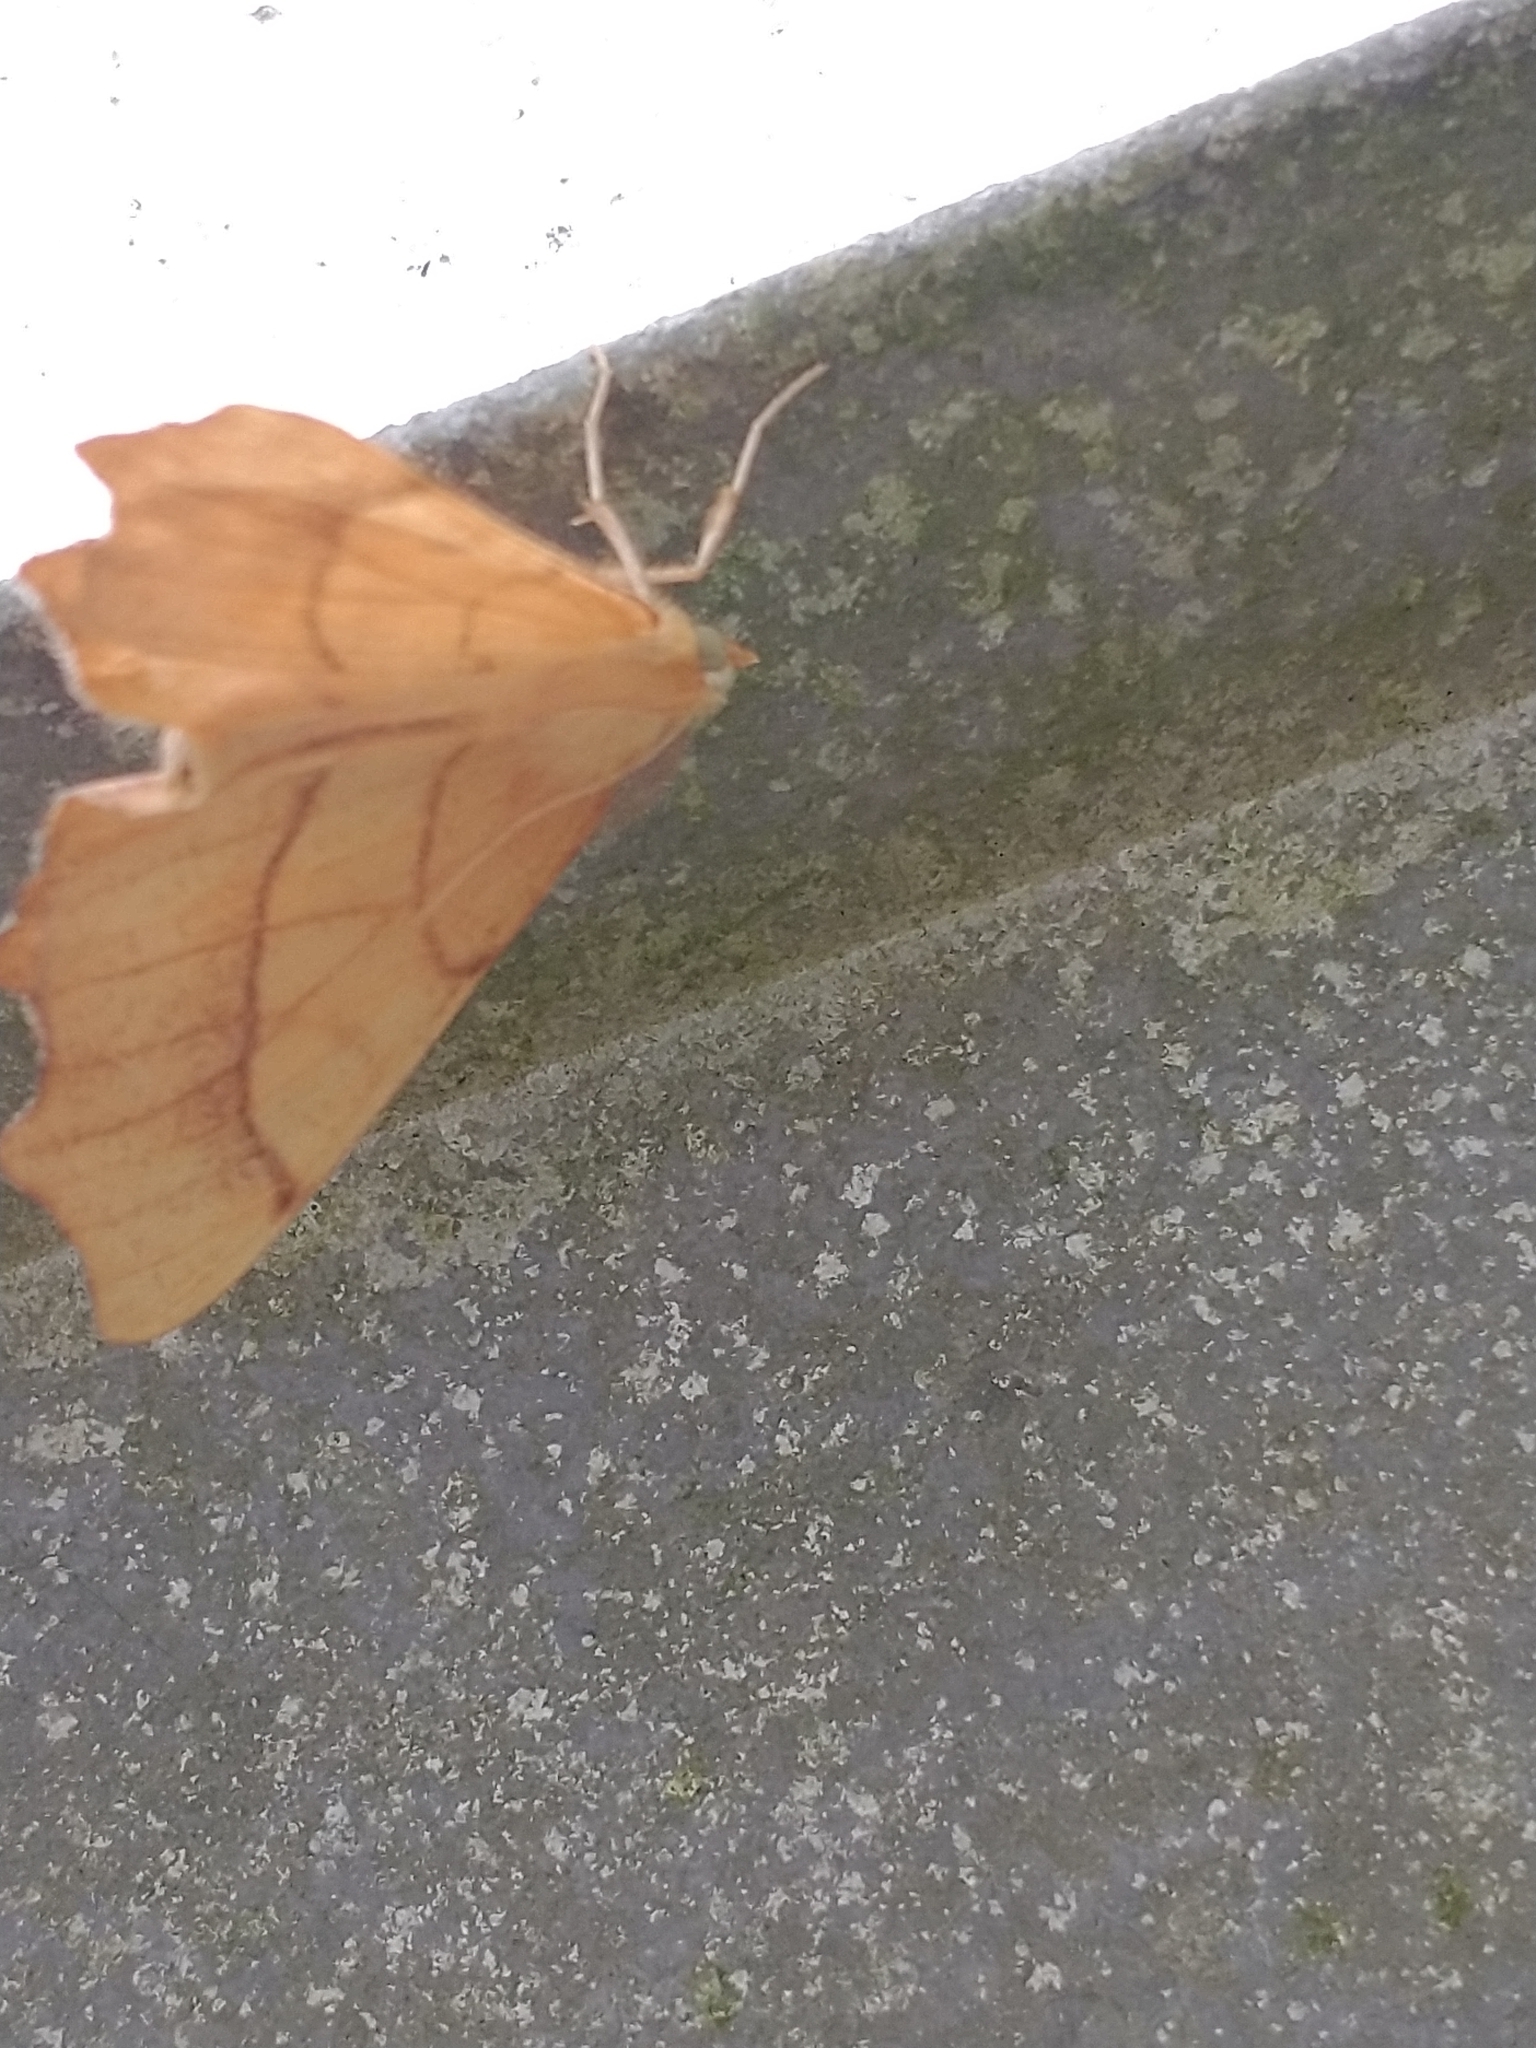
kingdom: Animalia
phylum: Arthropoda
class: Insecta
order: Lepidoptera
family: Geometridae
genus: Ennomos
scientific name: Ennomos quercinaria
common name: August thorn
